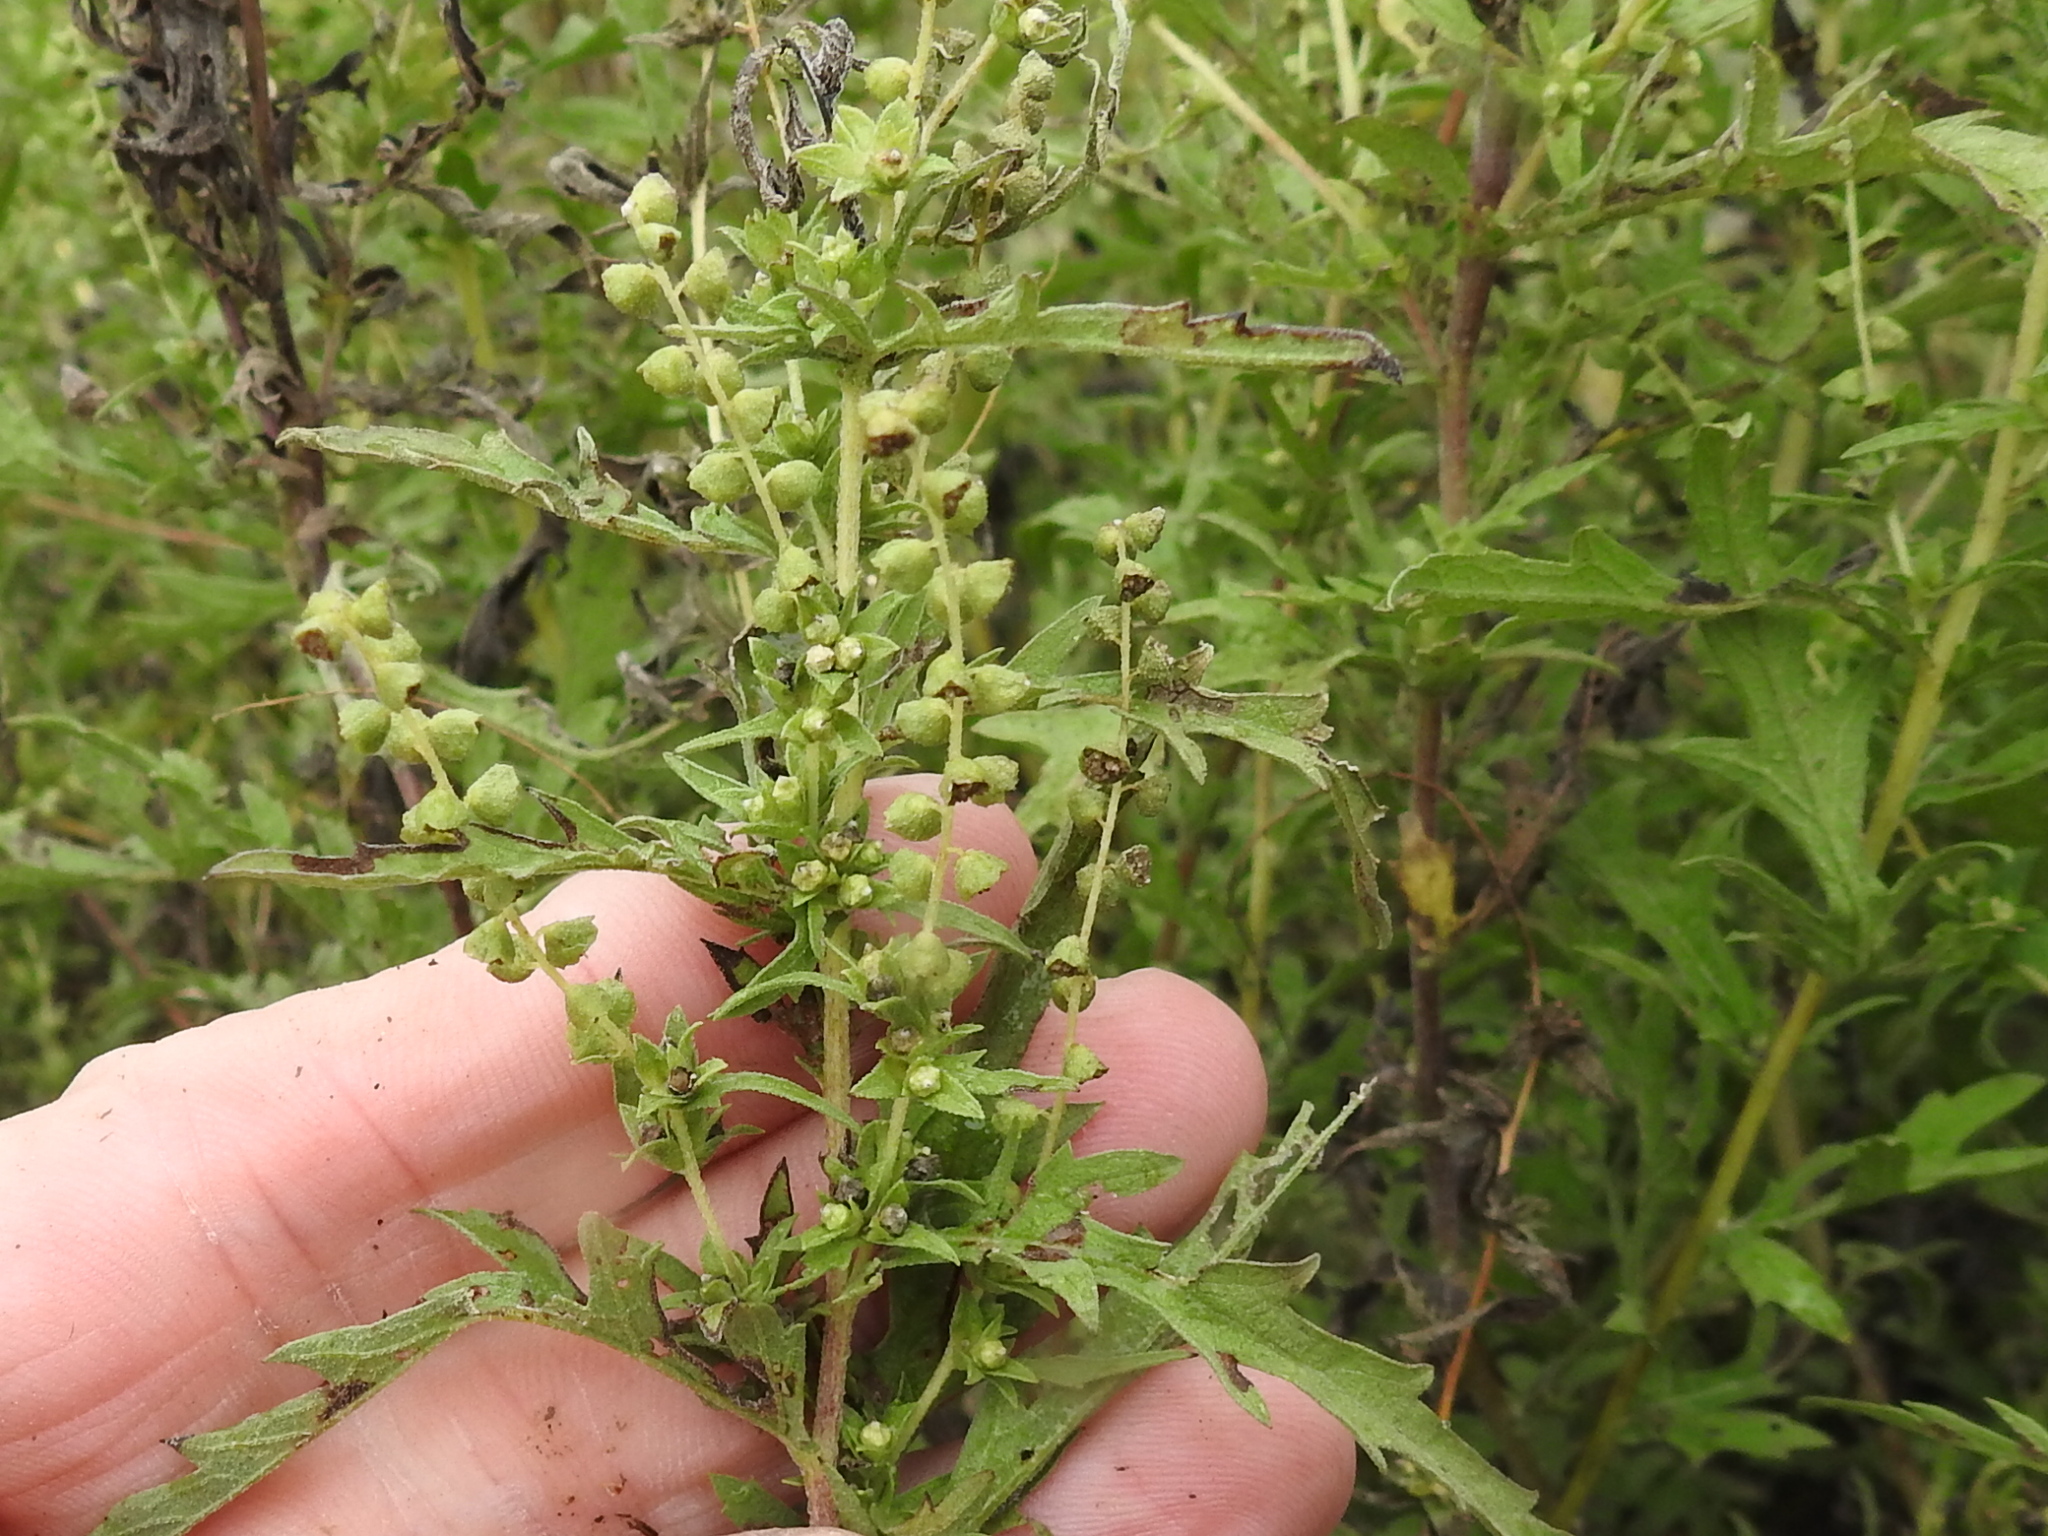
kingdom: Plantae
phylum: Tracheophyta
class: Magnoliopsida
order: Asterales
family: Asteraceae
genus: Ambrosia
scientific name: Ambrosia psilostachya
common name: Perennial ragweed
